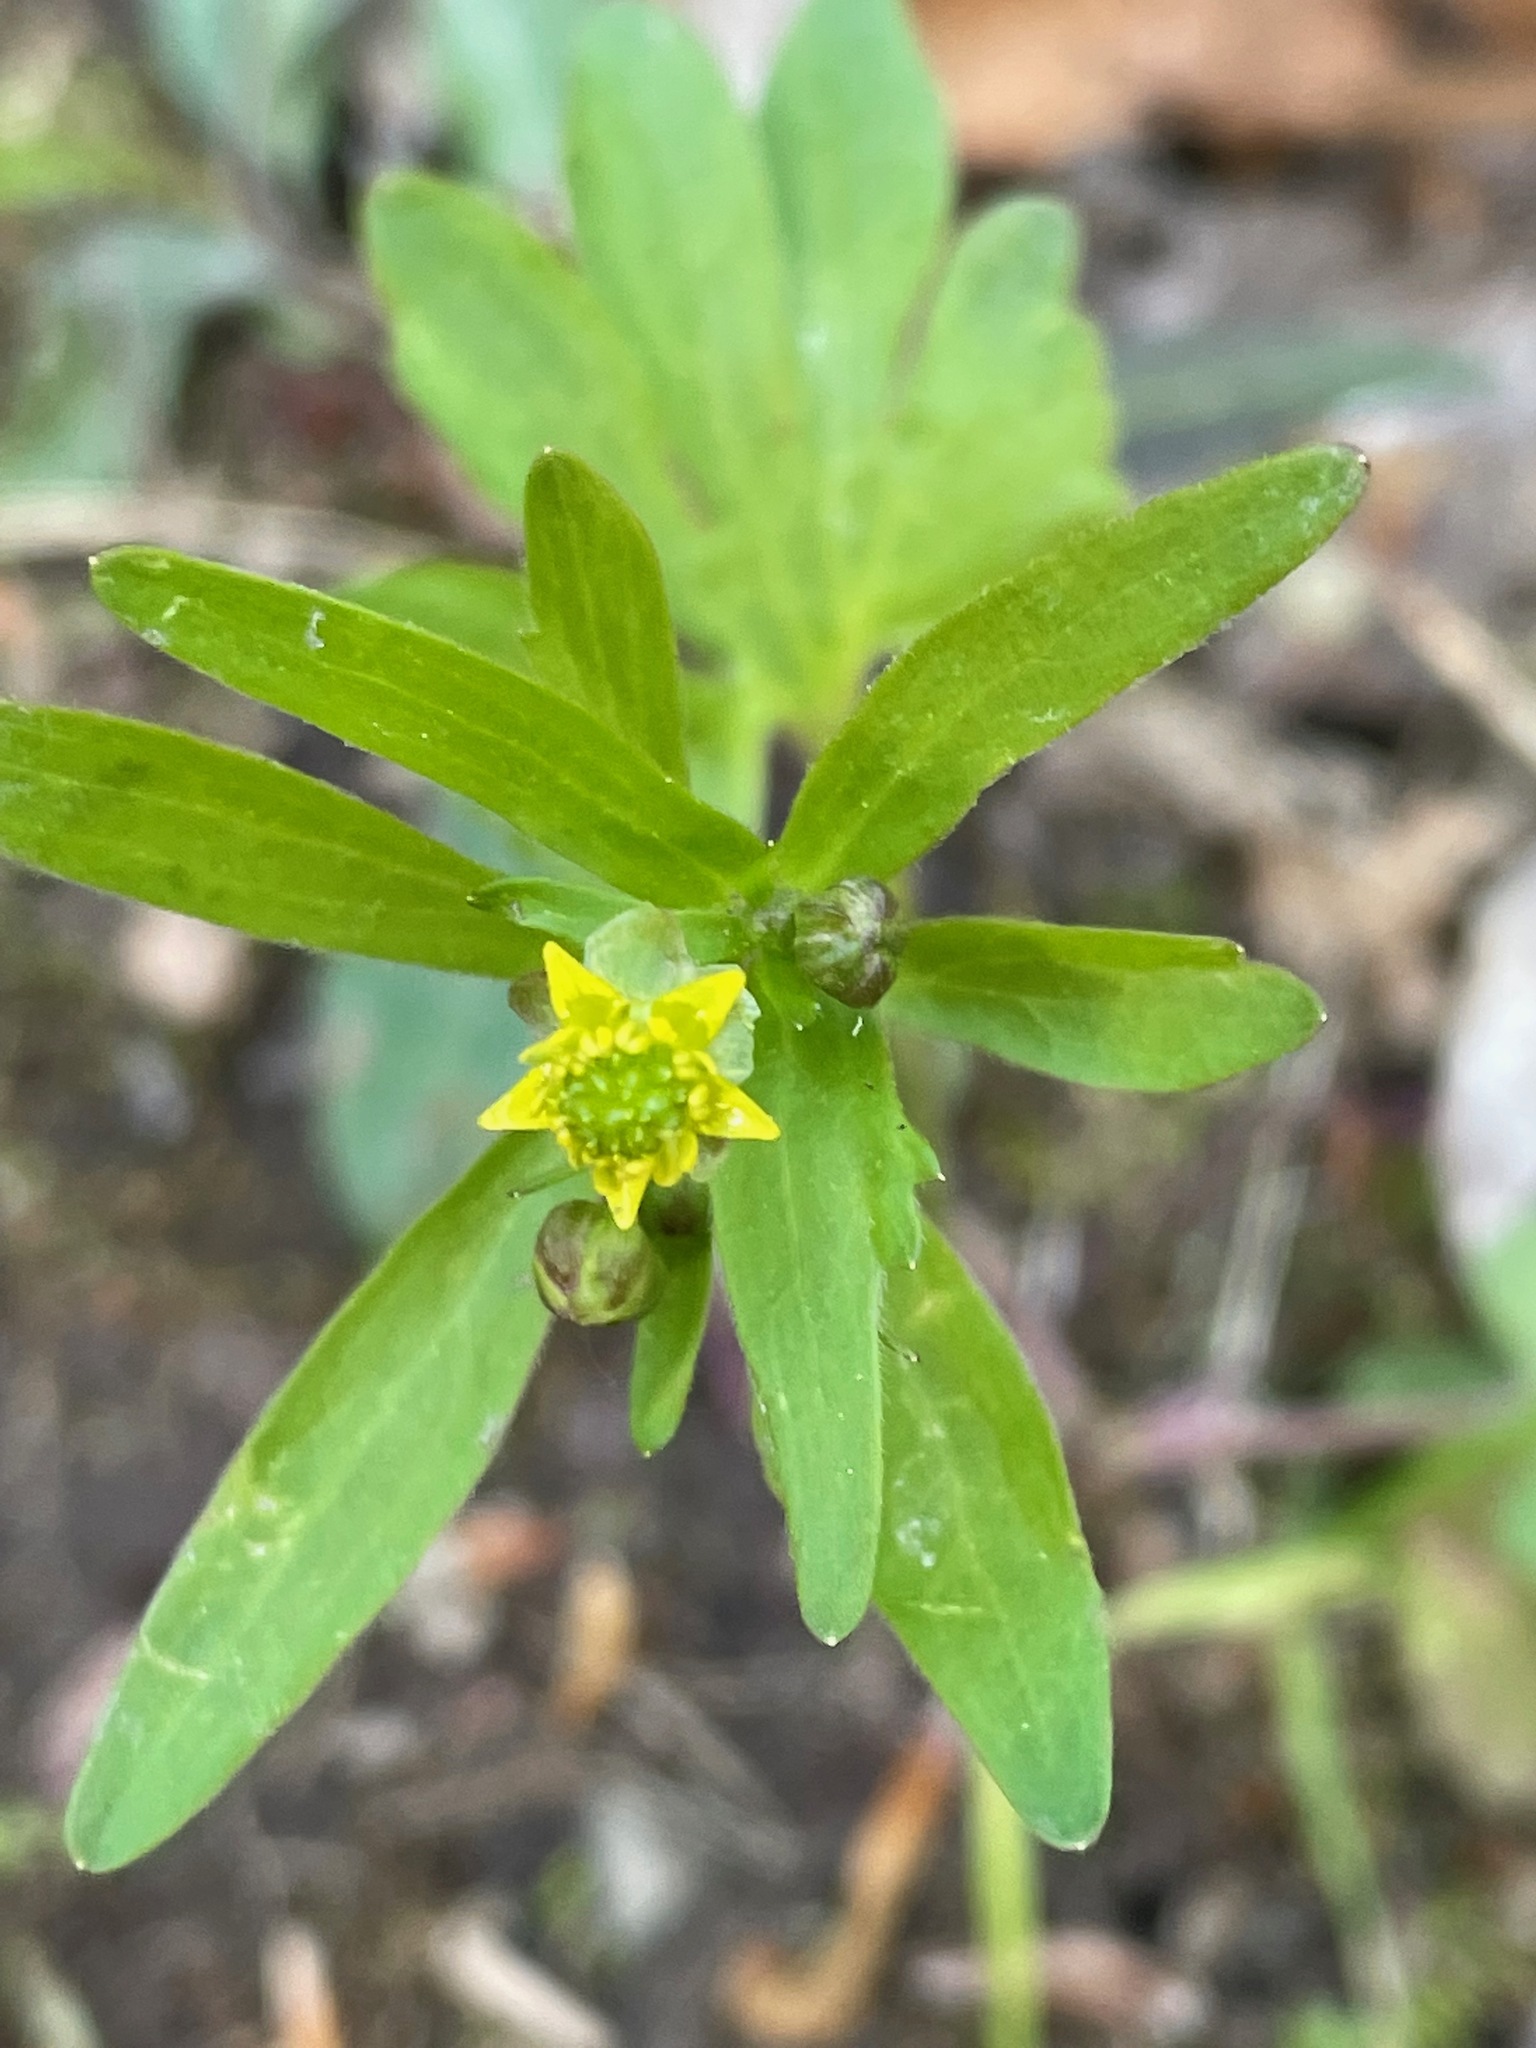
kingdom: Plantae
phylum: Tracheophyta
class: Magnoliopsida
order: Ranunculales
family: Ranunculaceae
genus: Ranunculus
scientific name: Ranunculus abortivus
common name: Early wood buttercup
